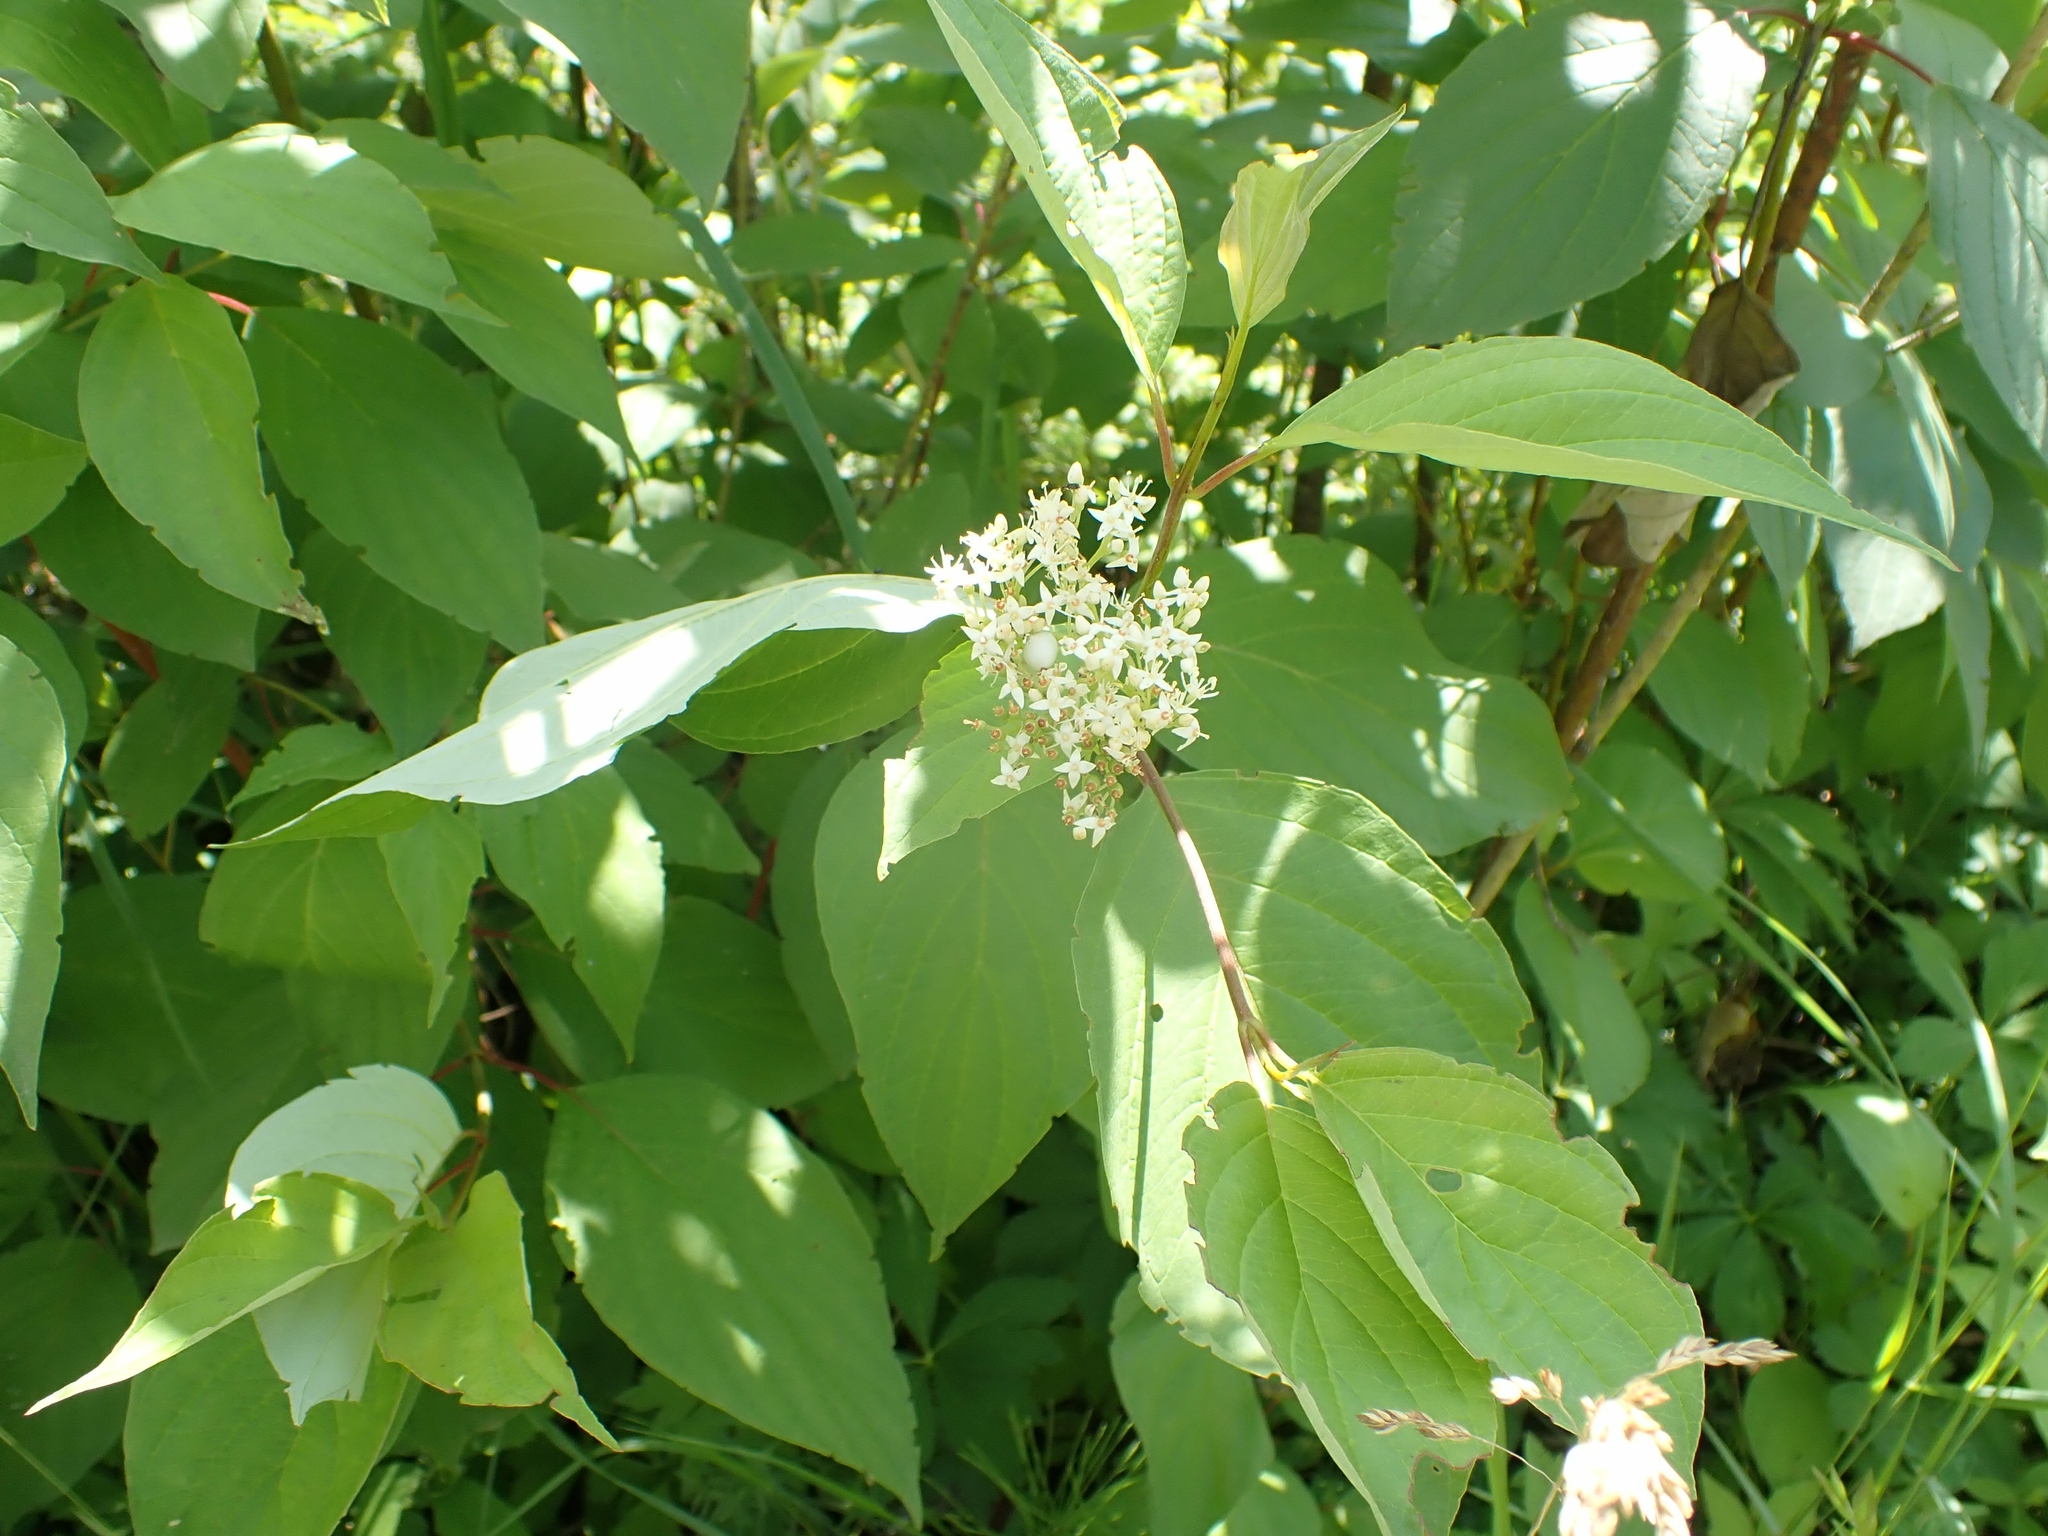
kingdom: Plantae
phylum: Tracheophyta
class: Magnoliopsida
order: Cornales
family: Cornaceae
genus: Cornus
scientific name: Cornus sericea
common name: Red-osier dogwood
